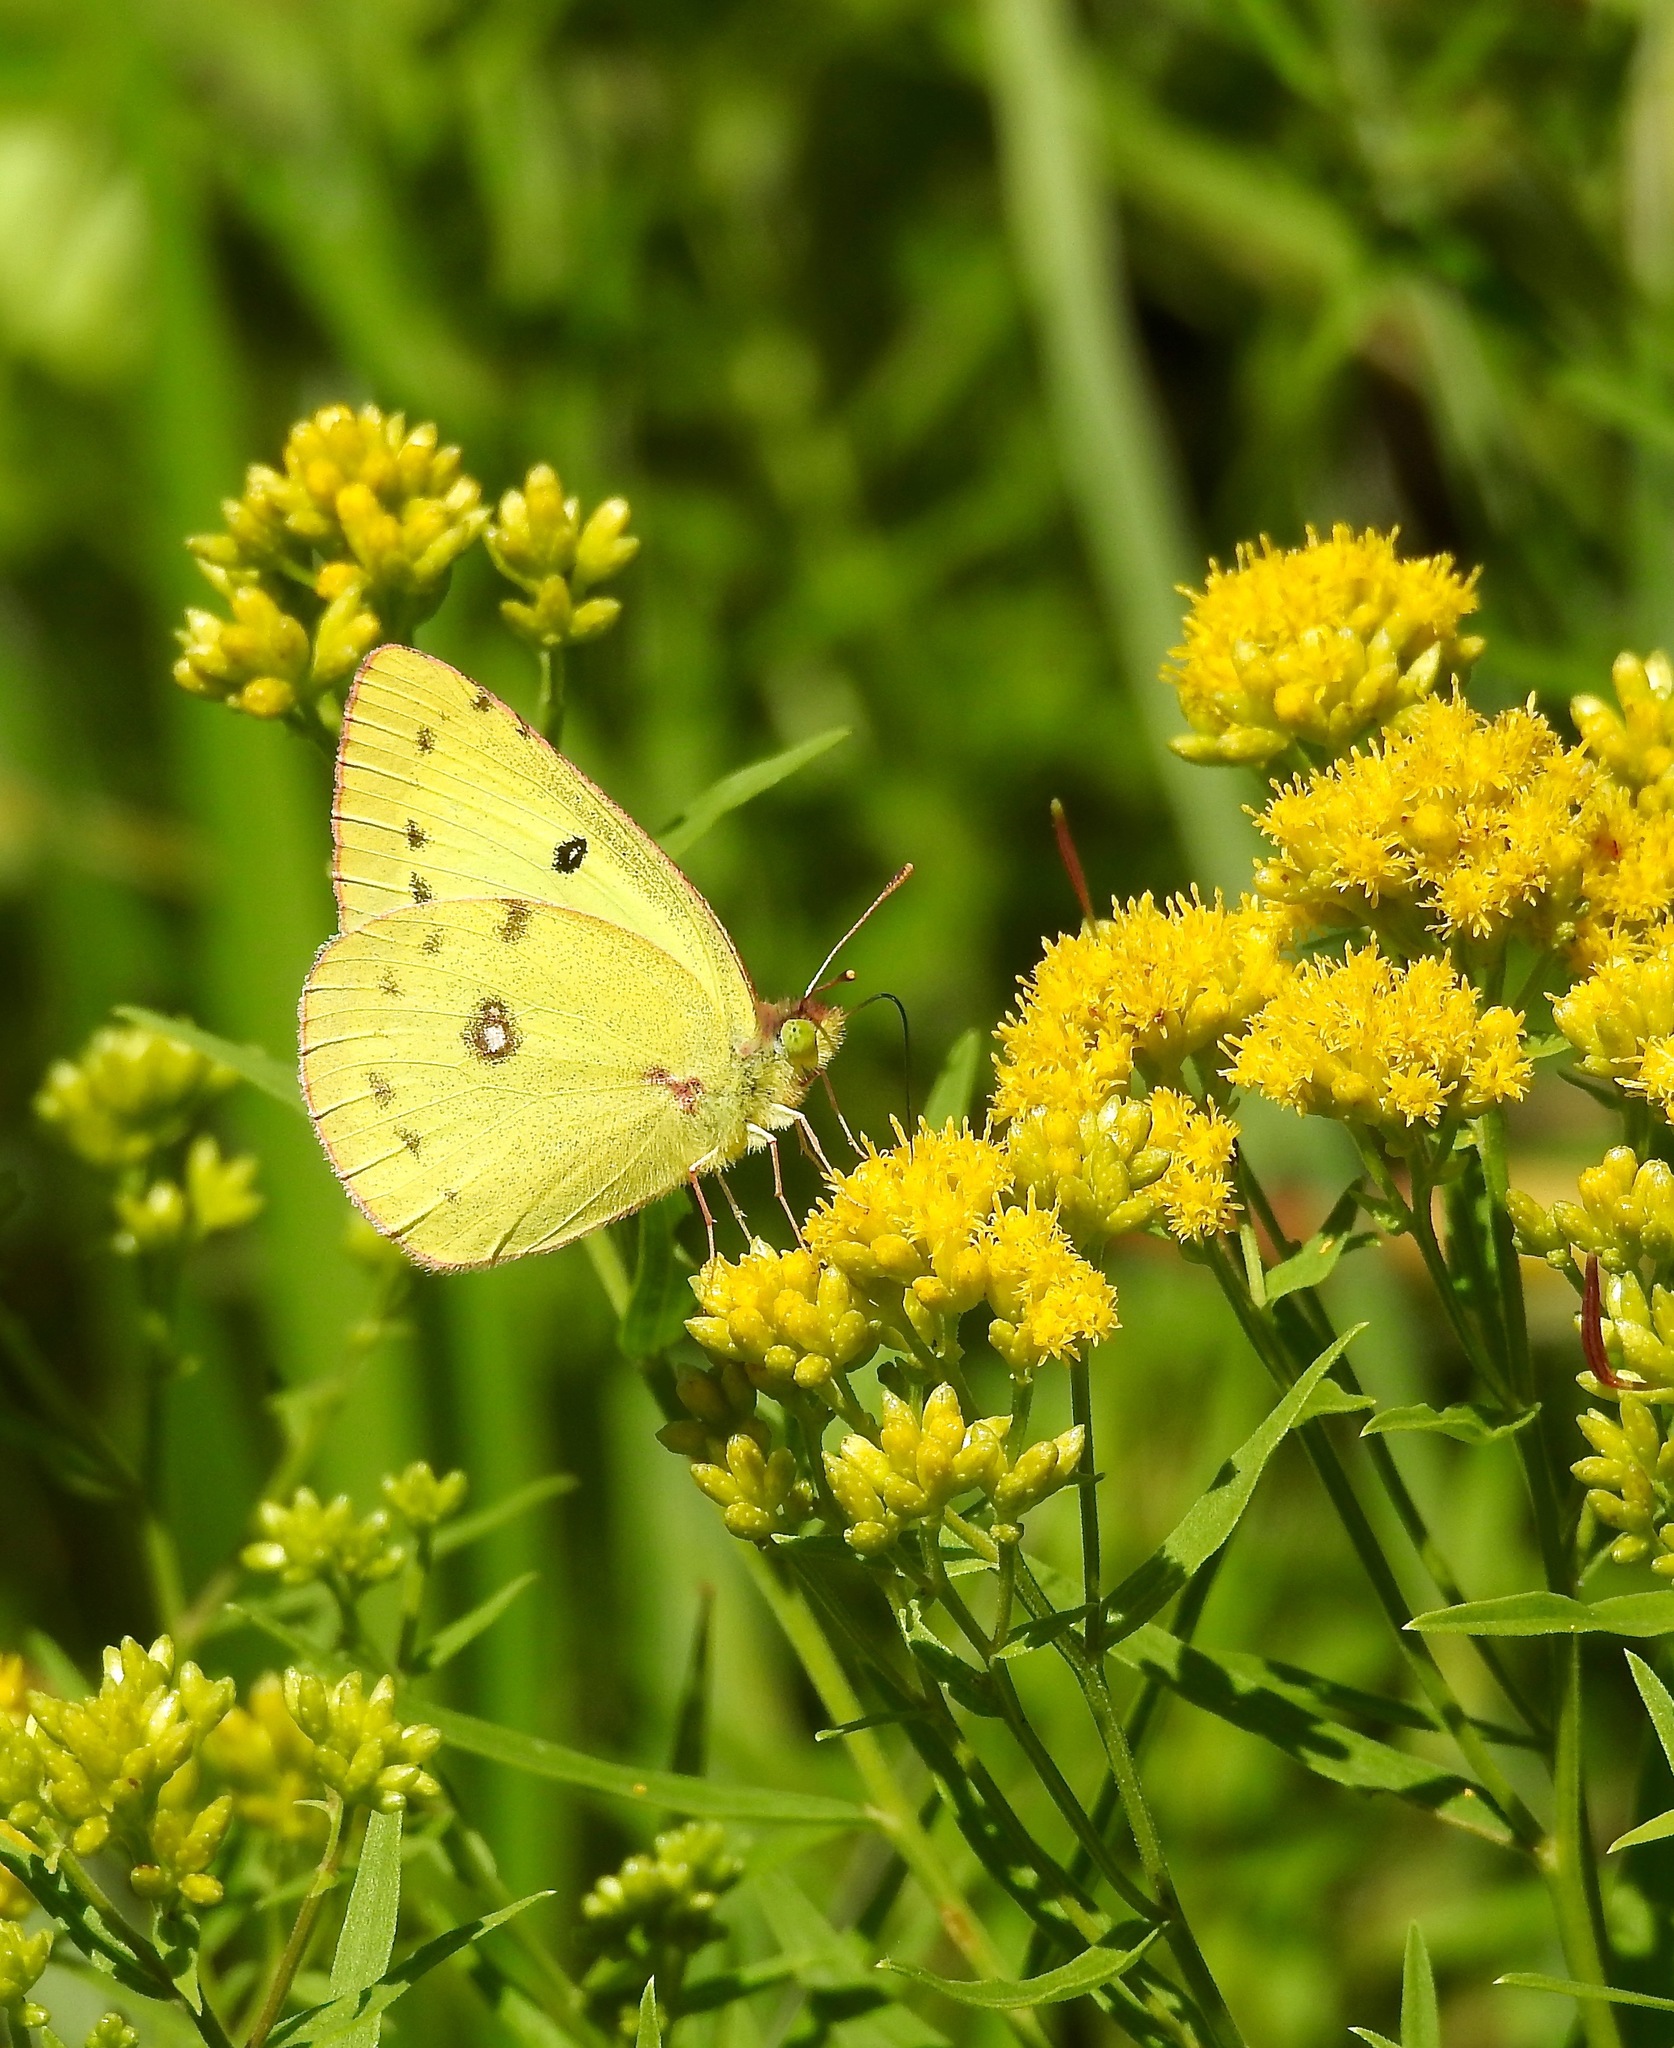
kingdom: Animalia
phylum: Arthropoda
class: Insecta
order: Lepidoptera
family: Pieridae
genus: Colias
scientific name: Colias philodice
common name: Clouded sulphur
